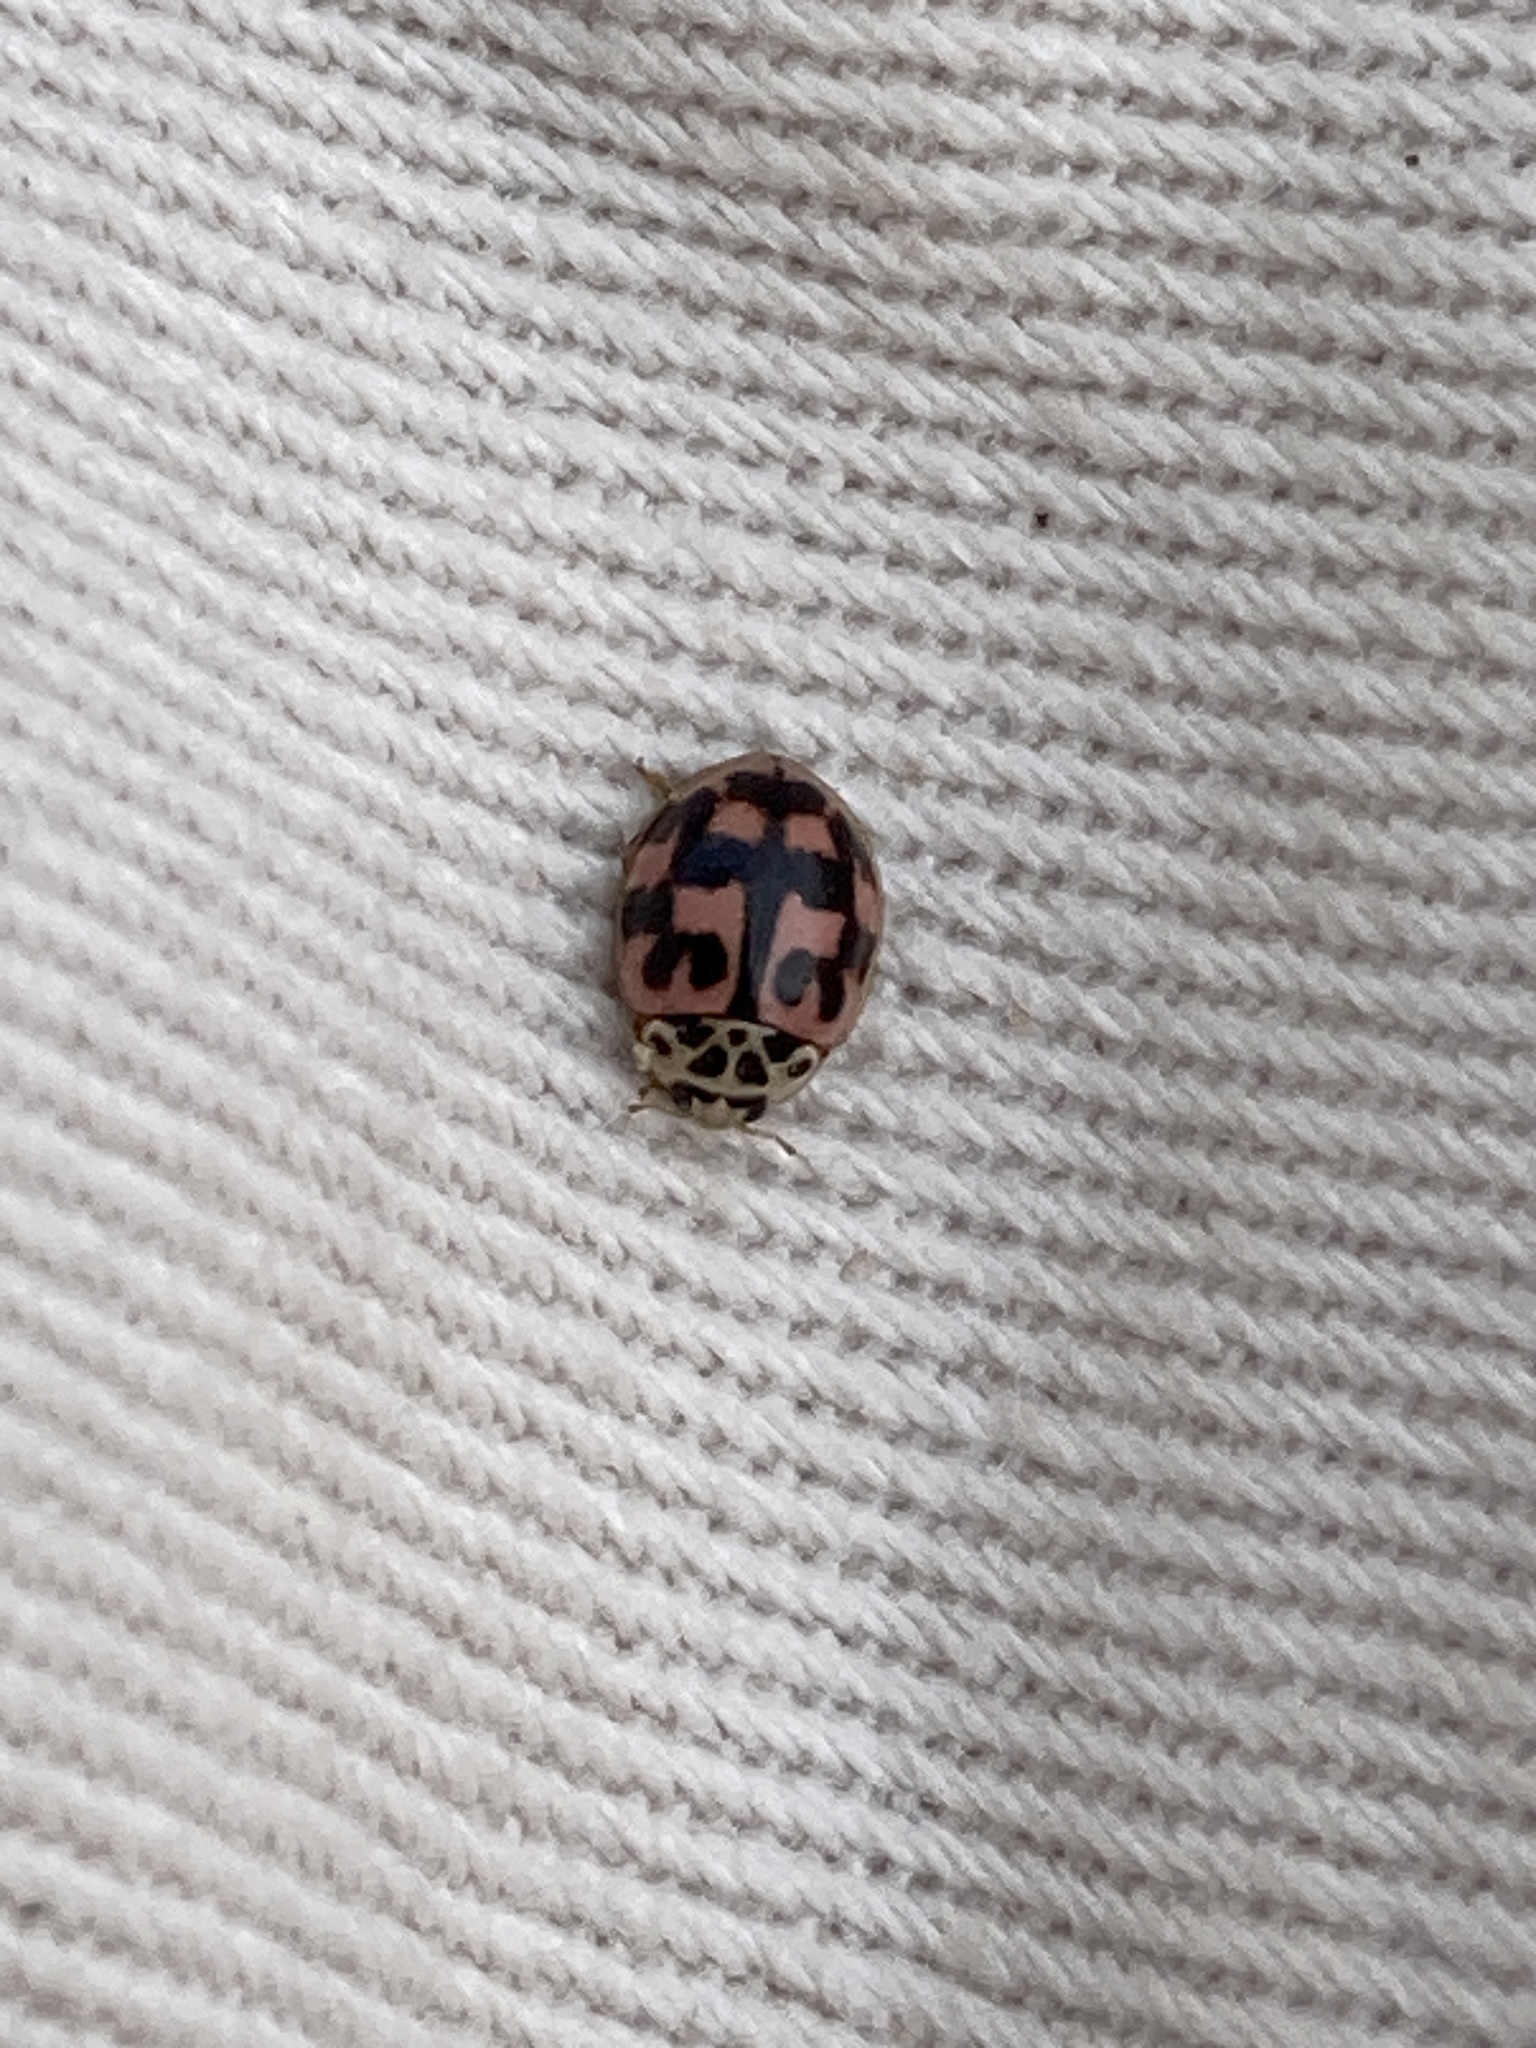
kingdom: Animalia
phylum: Arthropoda
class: Insecta
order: Coleoptera
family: Coccinellidae
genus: Oenopia
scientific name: Oenopia conglobata
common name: Ladybird beetle
